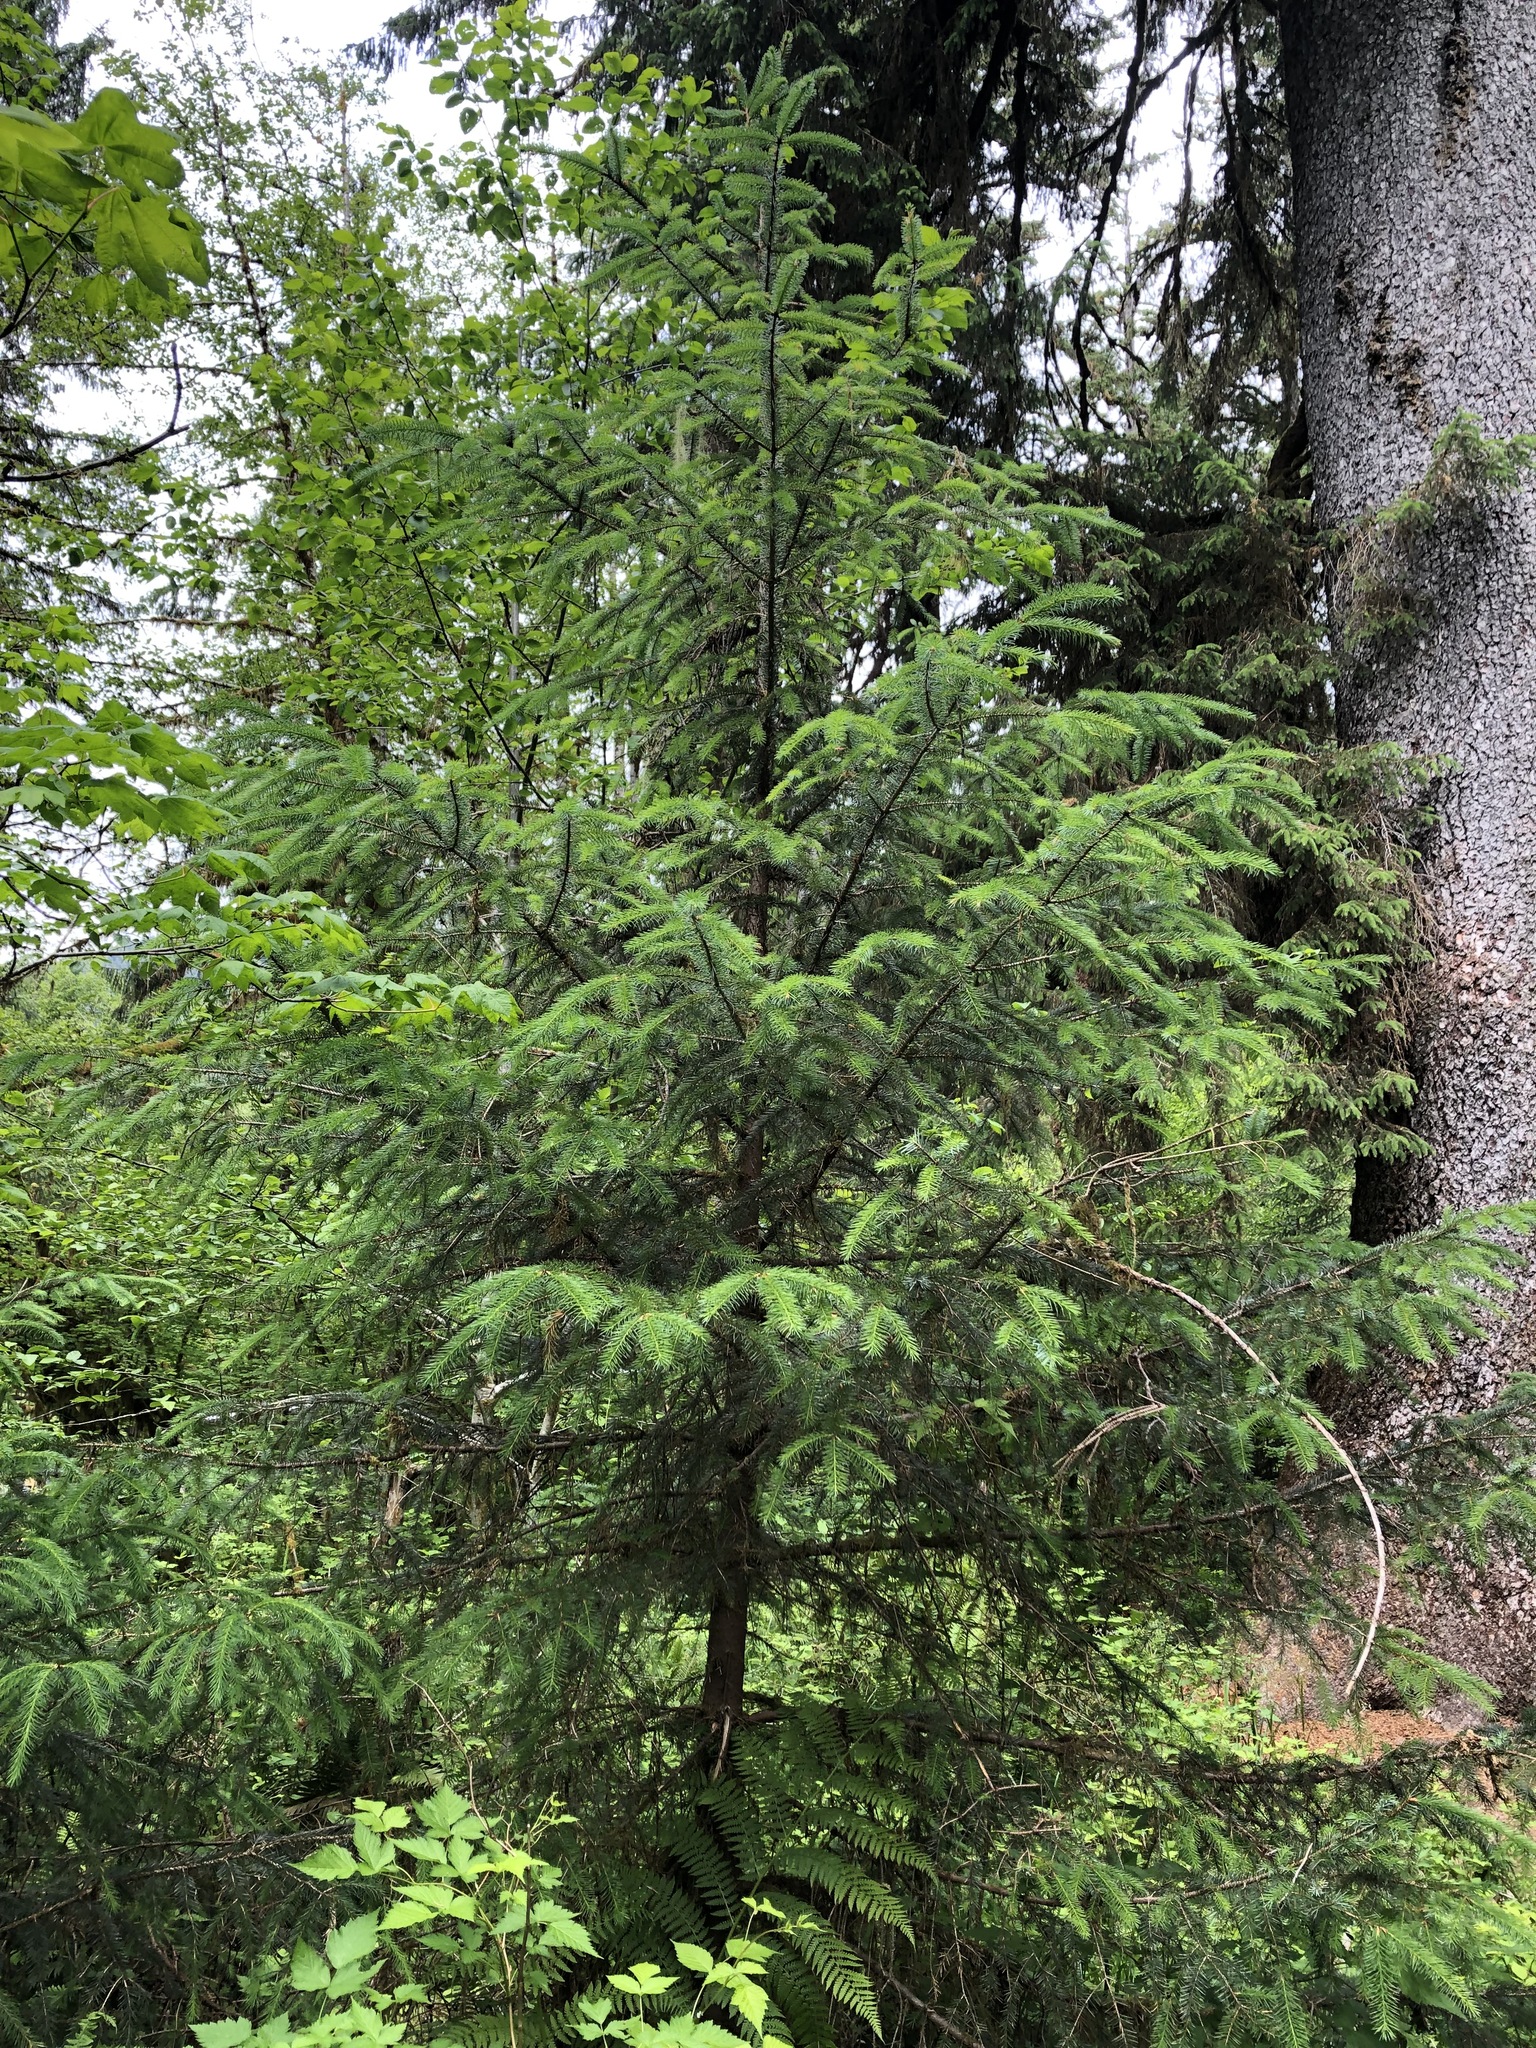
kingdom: Plantae
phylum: Tracheophyta
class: Pinopsida
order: Pinales
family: Pinaceae
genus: Picea
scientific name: Picea sitchensis
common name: Sitka spruce
